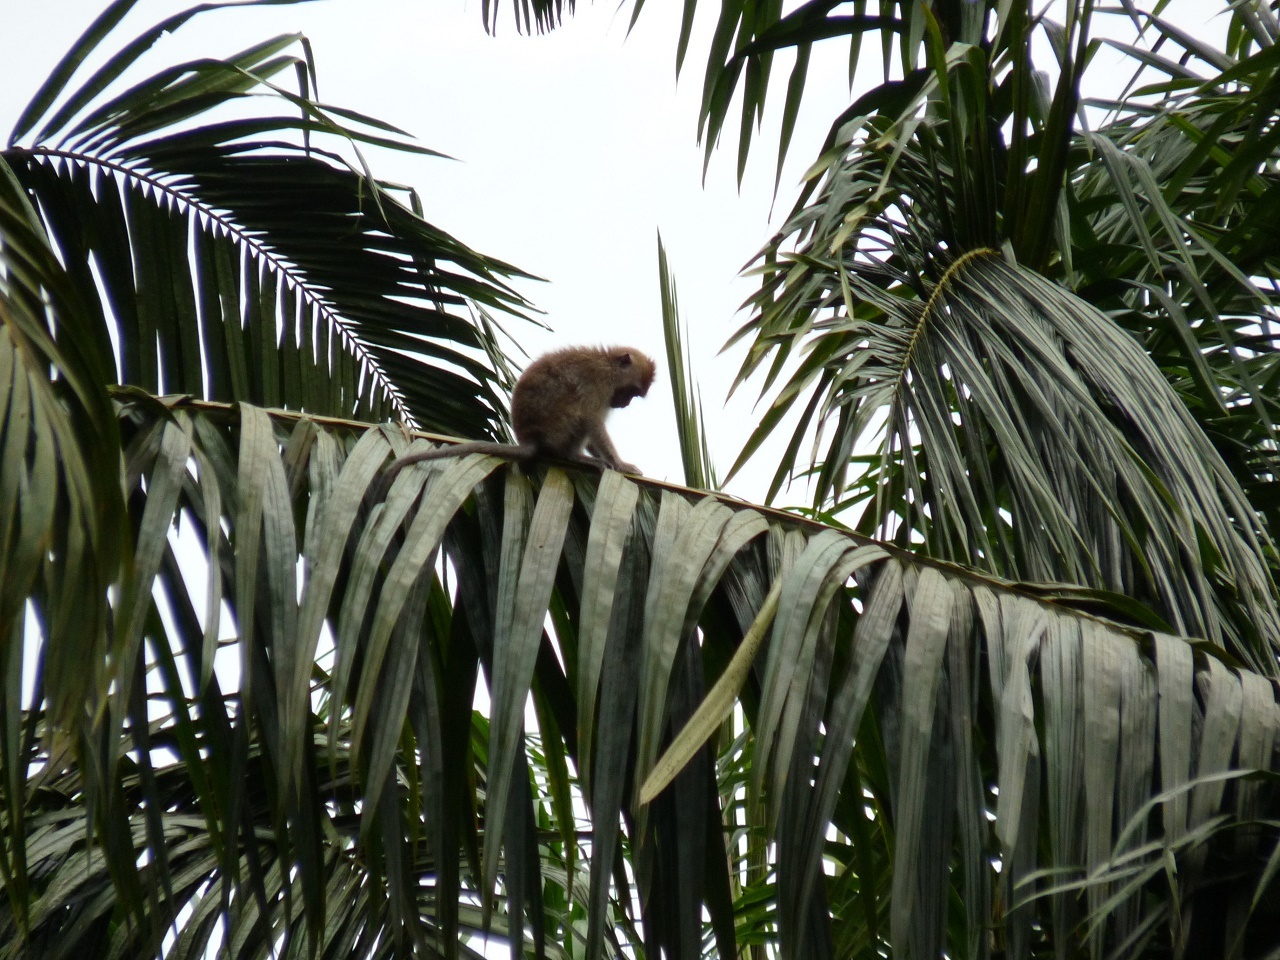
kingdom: Animalia
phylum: Chordata
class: Mammalia
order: Primates
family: Cercopithecidae
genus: Macaca
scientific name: Macaca fascicularis
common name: Crab-eating macaque
